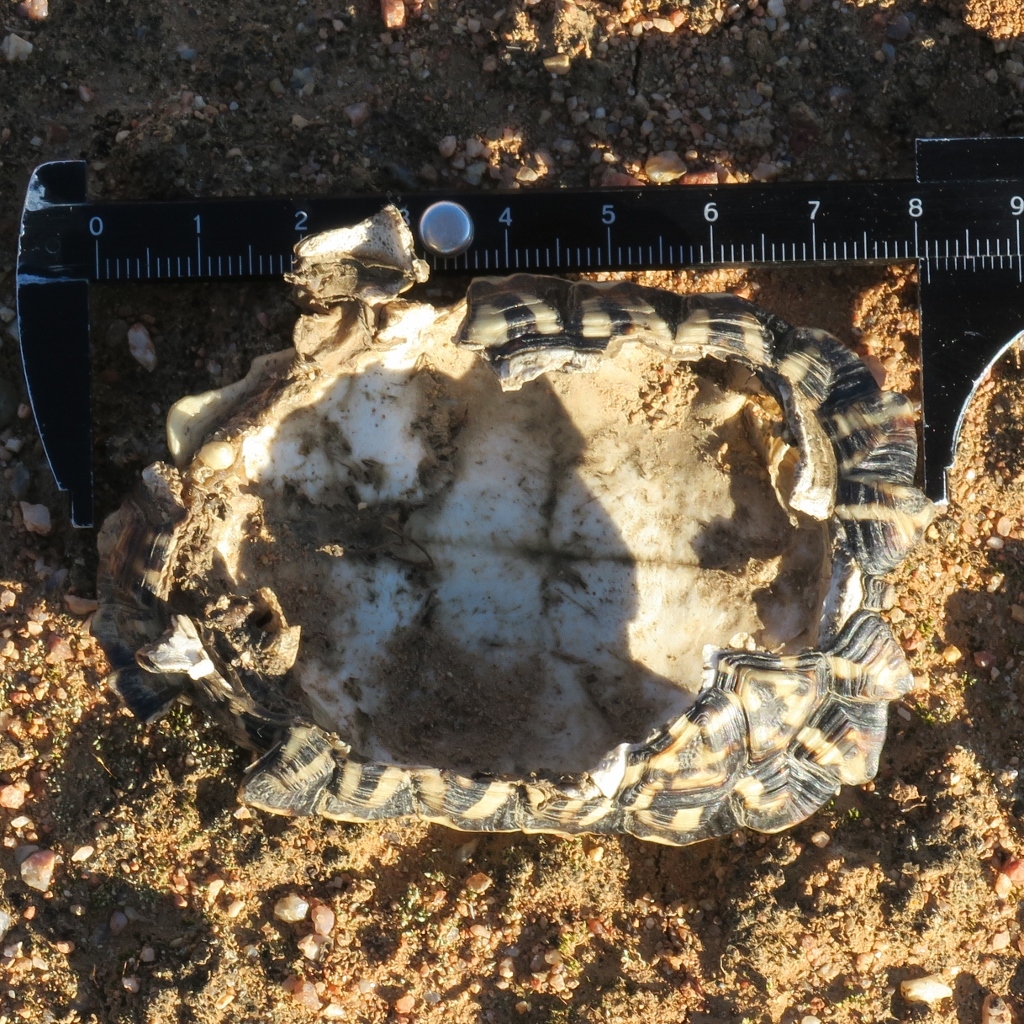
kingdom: Animalia
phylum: Chordata
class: Testudines
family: Testudinidae
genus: Psammobates
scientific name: Psammobates tentorius
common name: Tent tortoise
